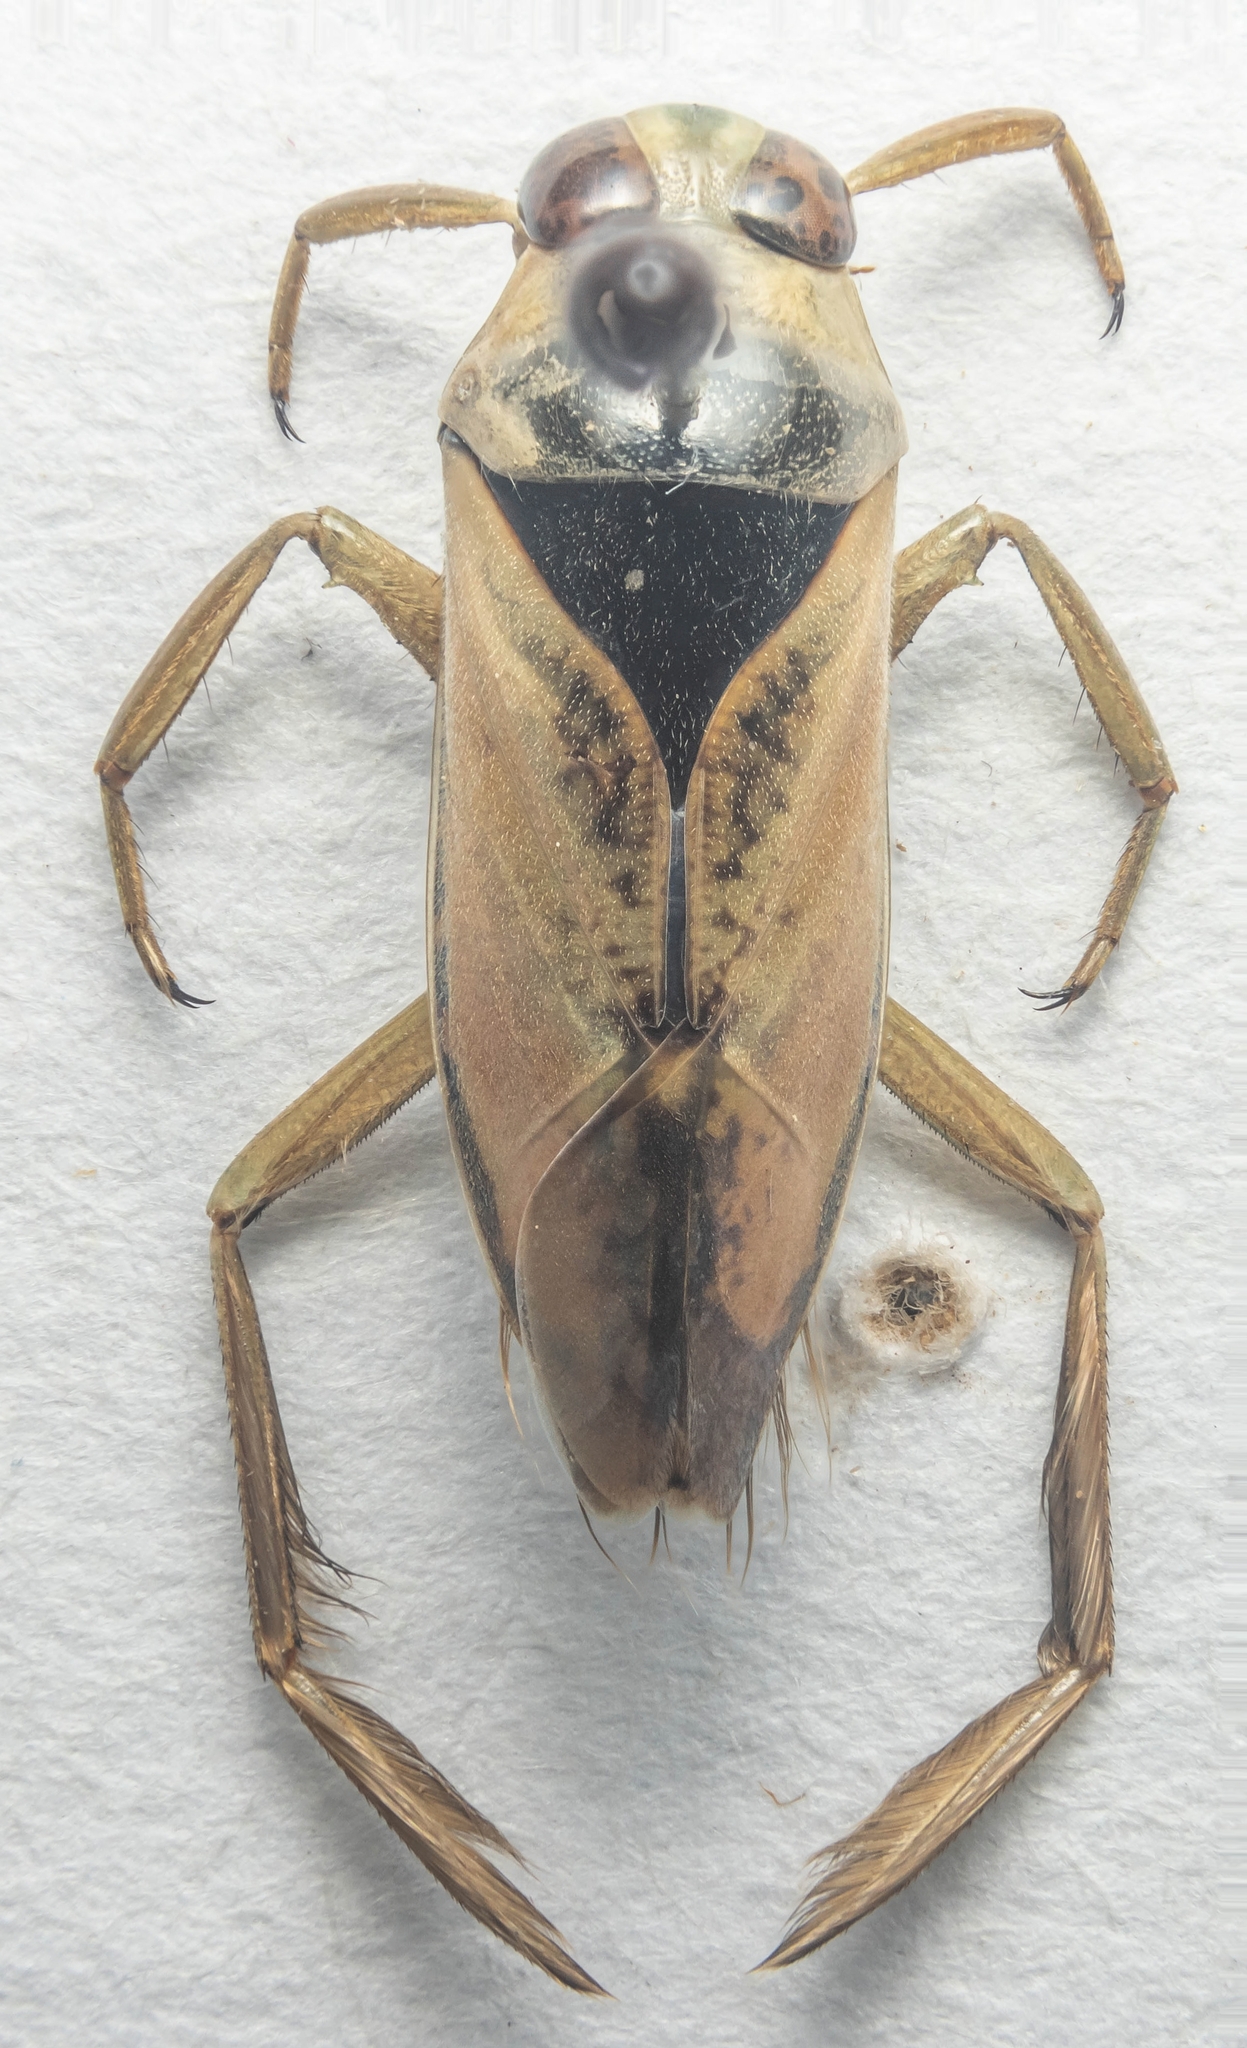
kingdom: Animalia
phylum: Arthropoda
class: Insecta
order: Hemiptera
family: Notonectidae
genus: Notonecta
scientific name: Notonecta glauca
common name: Common water-boatman
